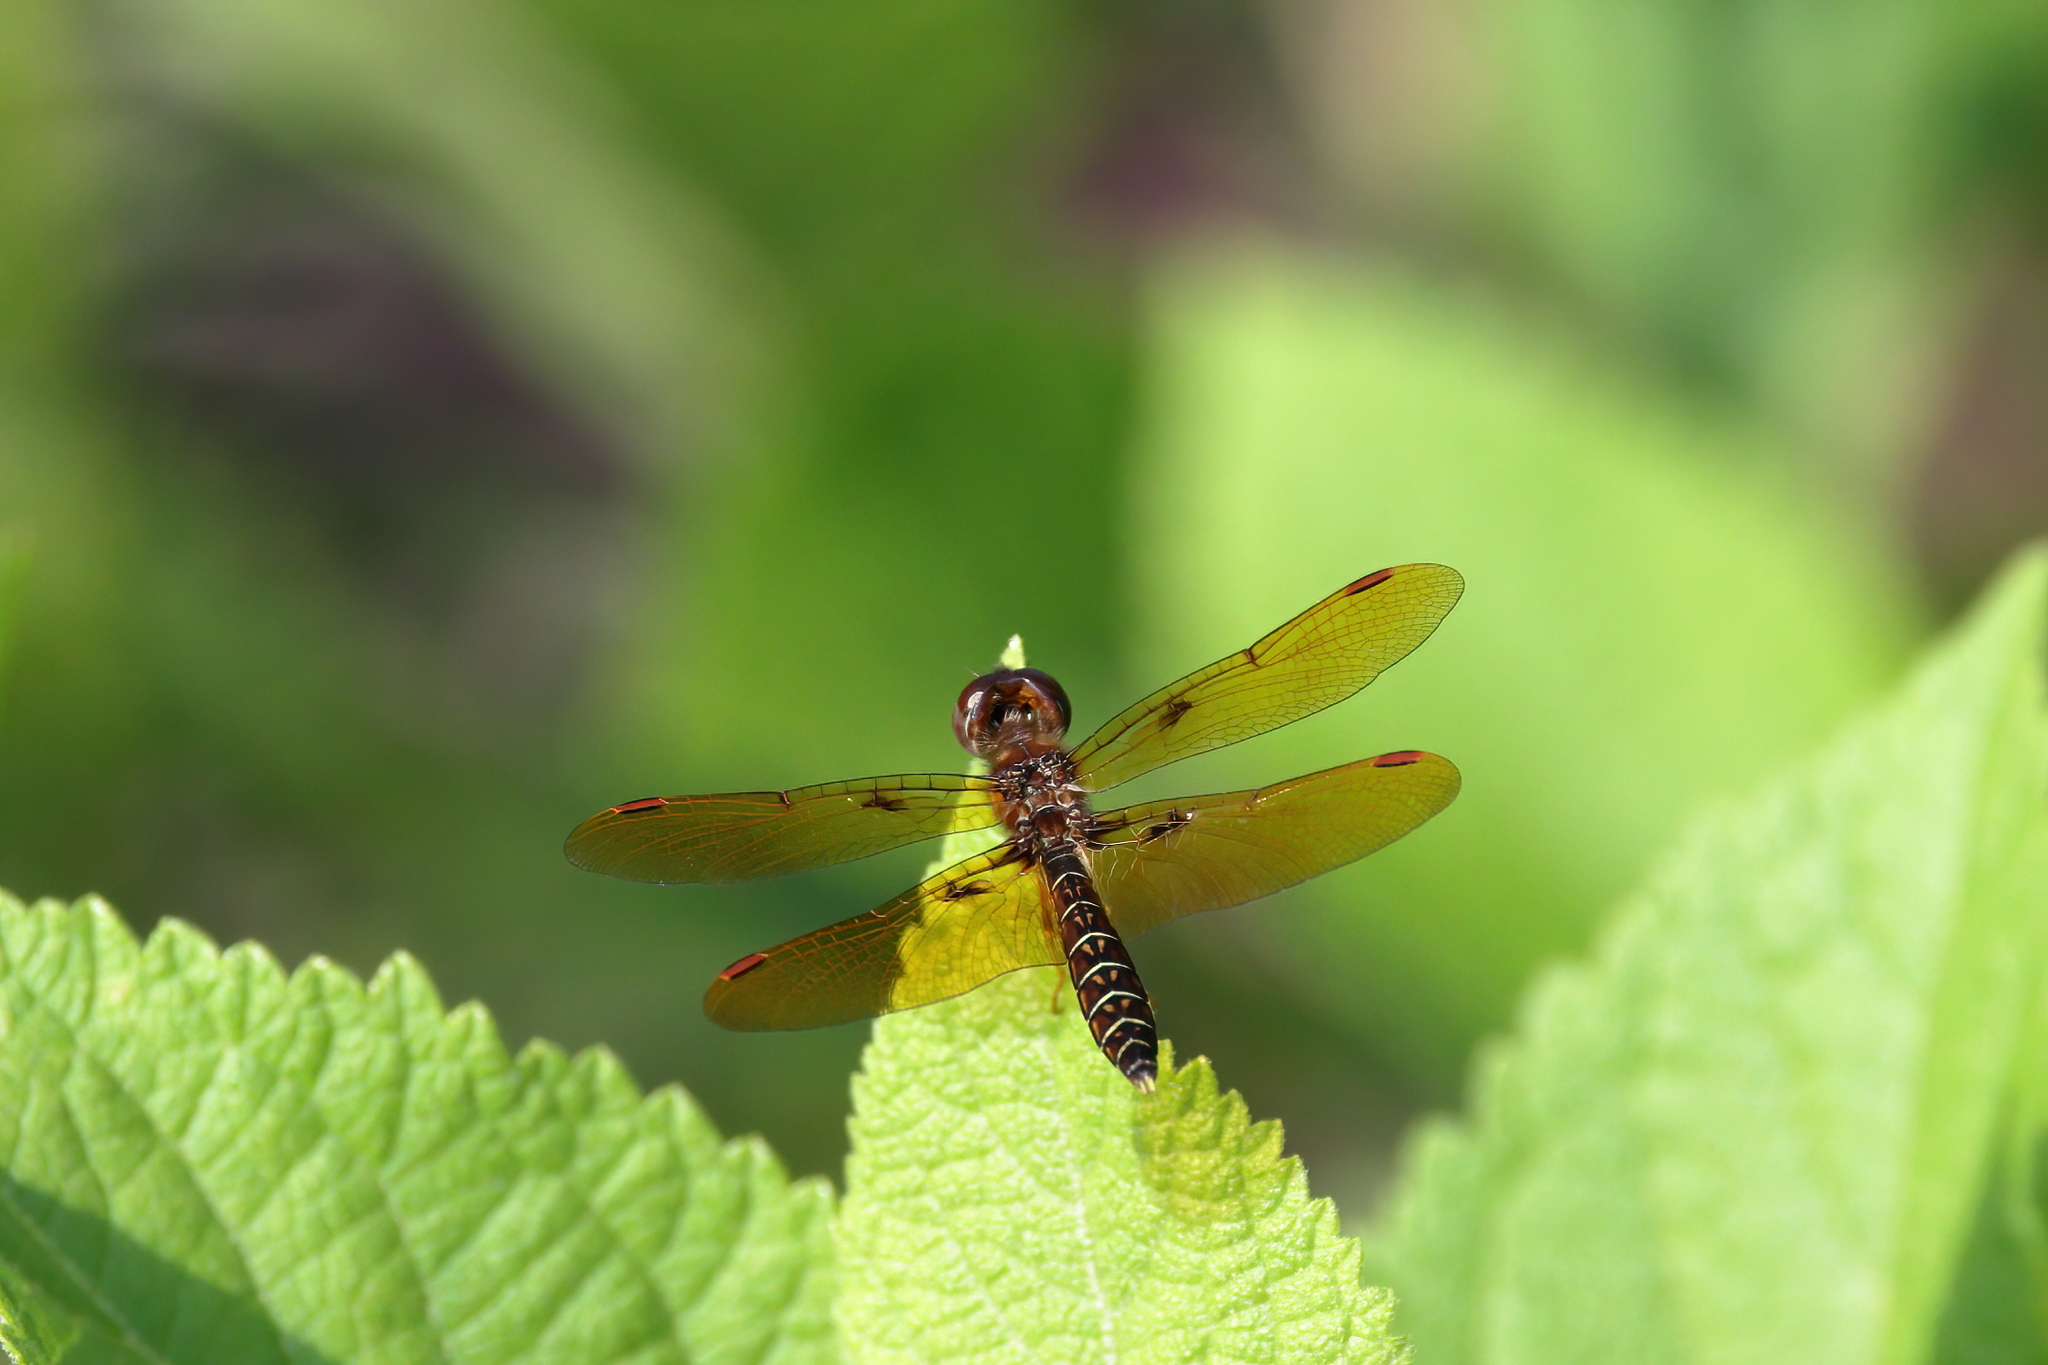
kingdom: Animalia
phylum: Arthropoda
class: Insecta
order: Odonata
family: Libellulidae
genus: Perithemis
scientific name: Perithemis tenera
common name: Eastern amberwing
